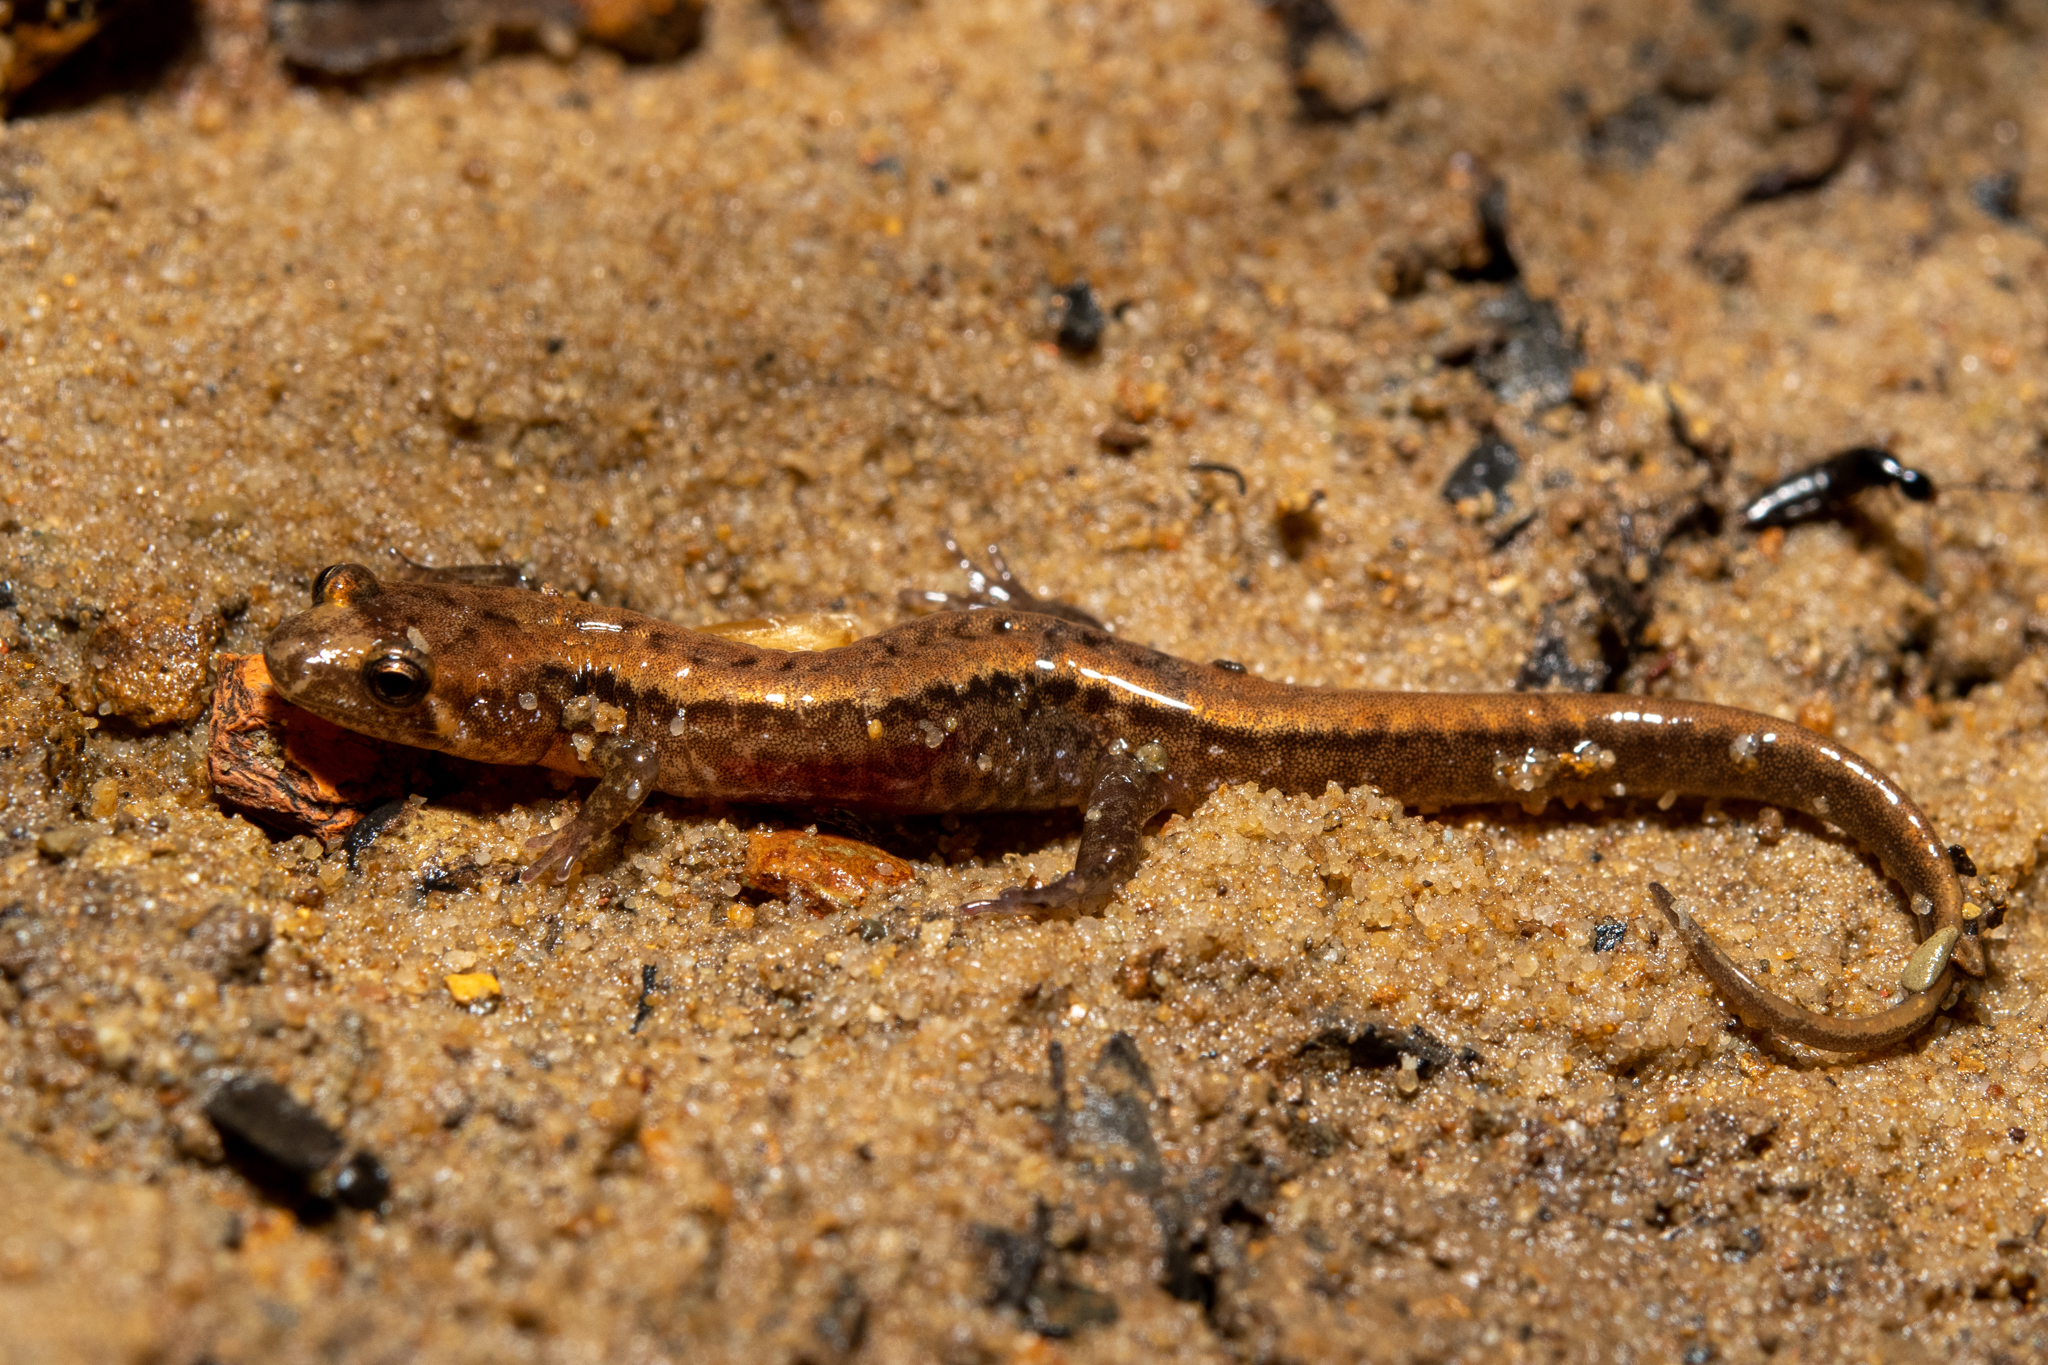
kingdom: Animalia
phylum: Chordata
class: Amphibia
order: Caudata
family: Plethodontidae
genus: Desmognathus
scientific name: Desmognathus ochrophaeus
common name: Allegheny mountain dusky salamander
